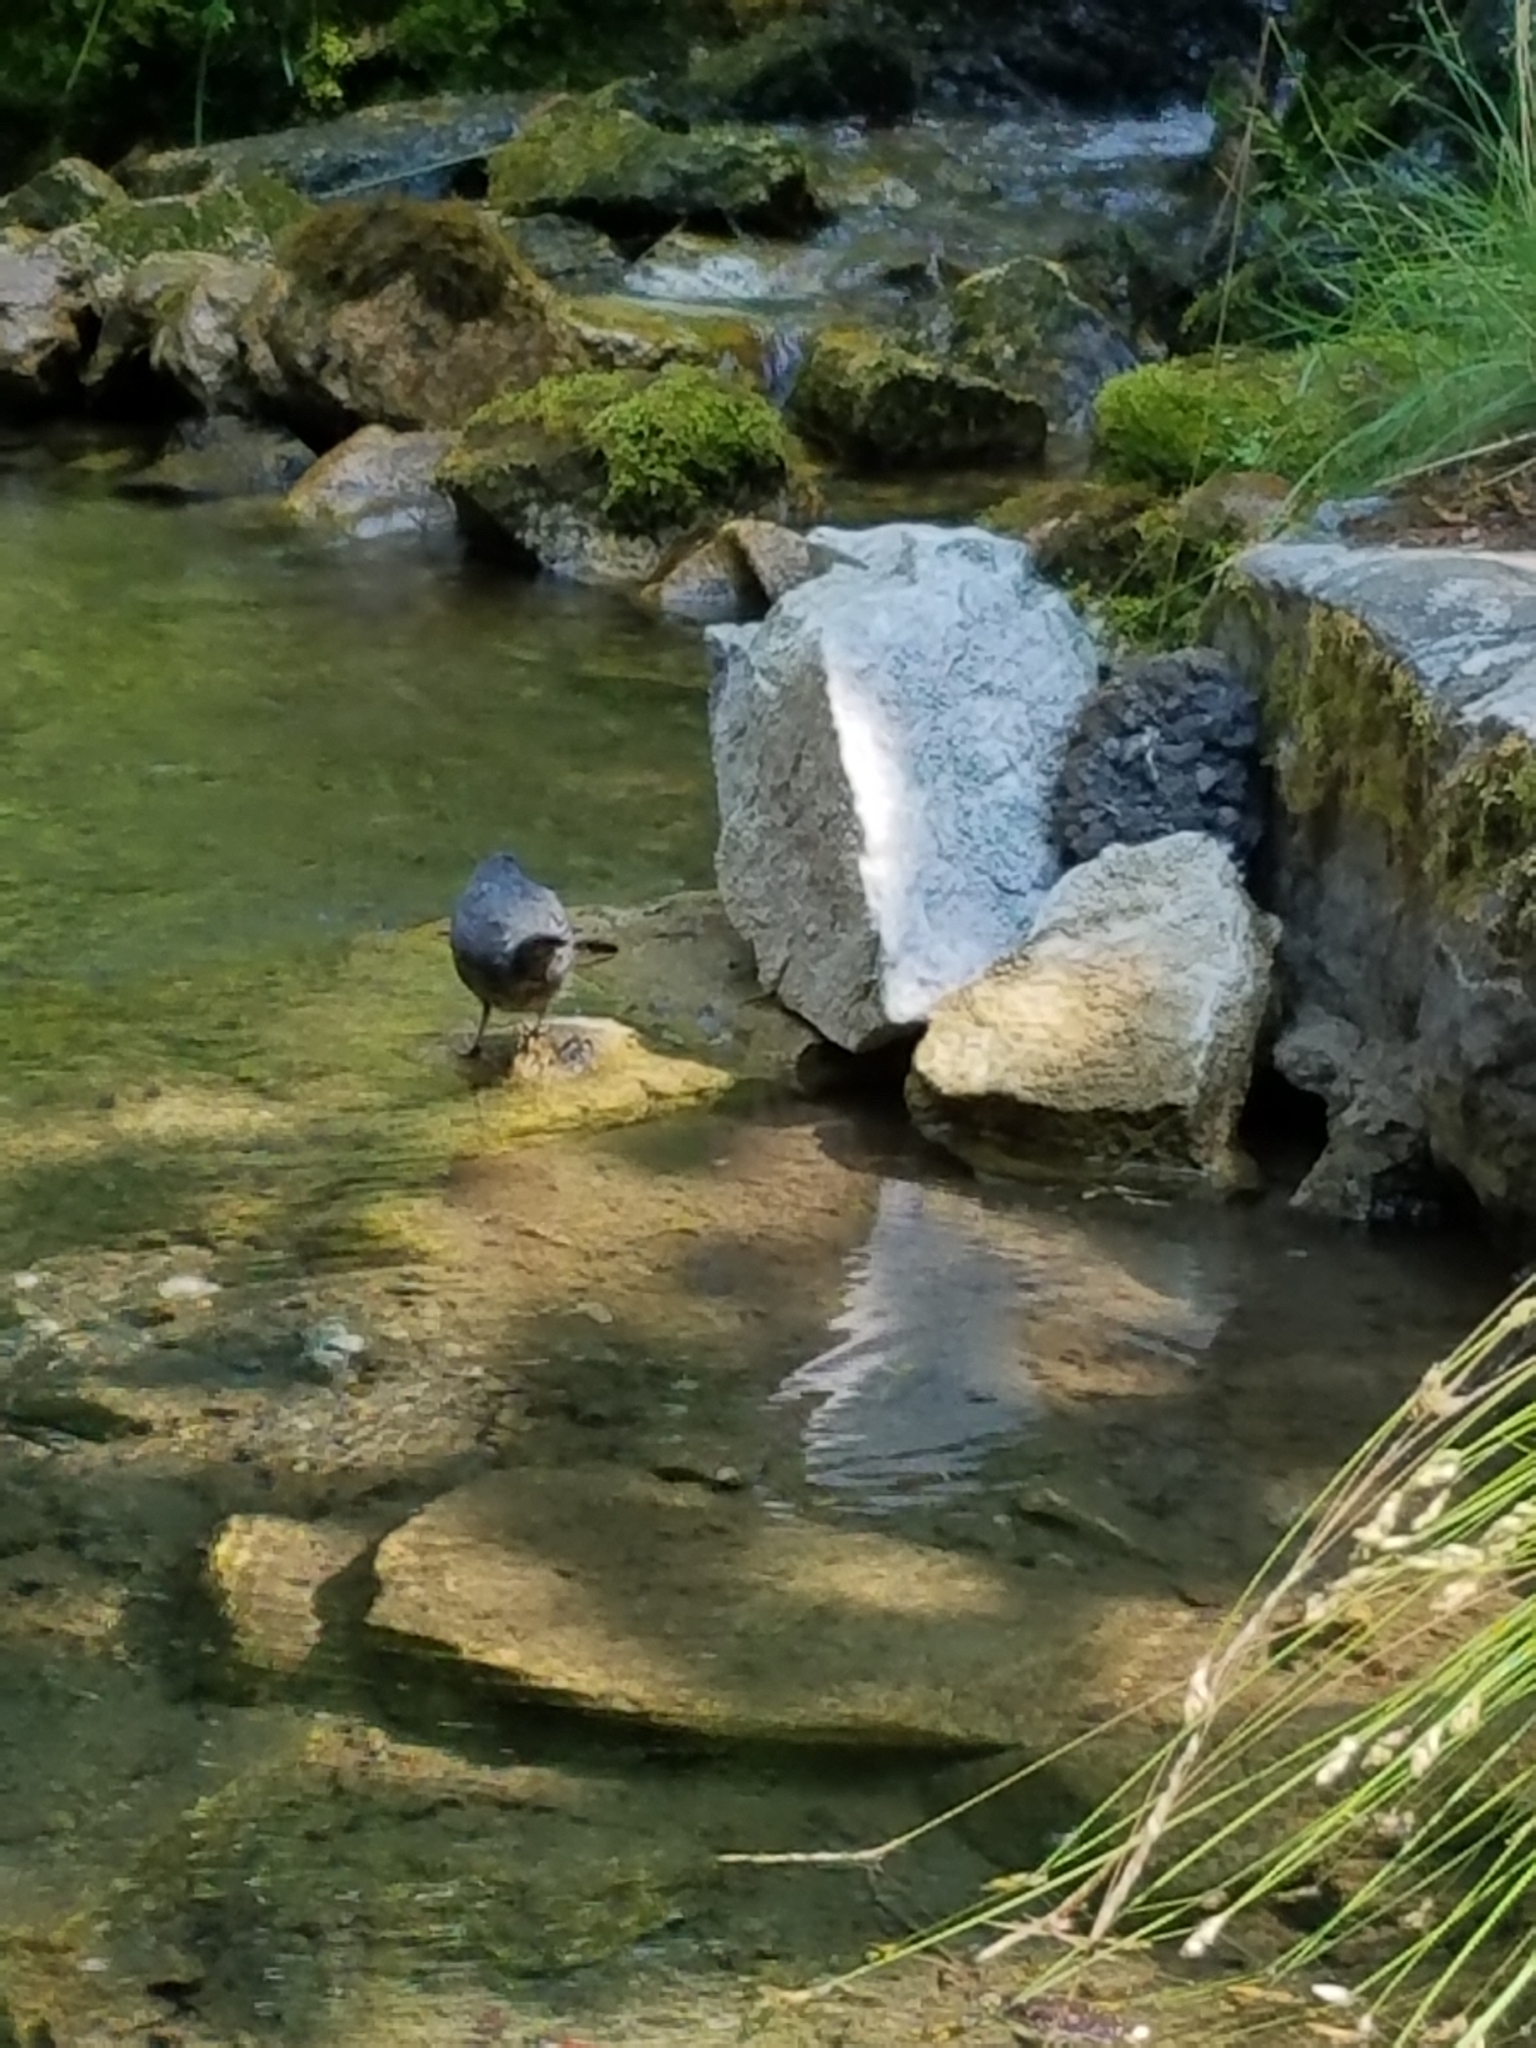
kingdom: Animalia
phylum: Chordata
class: Aves
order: Passeriformes
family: Cinclidae
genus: Cinclus
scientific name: Cinclus mexicanus
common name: American dipper
